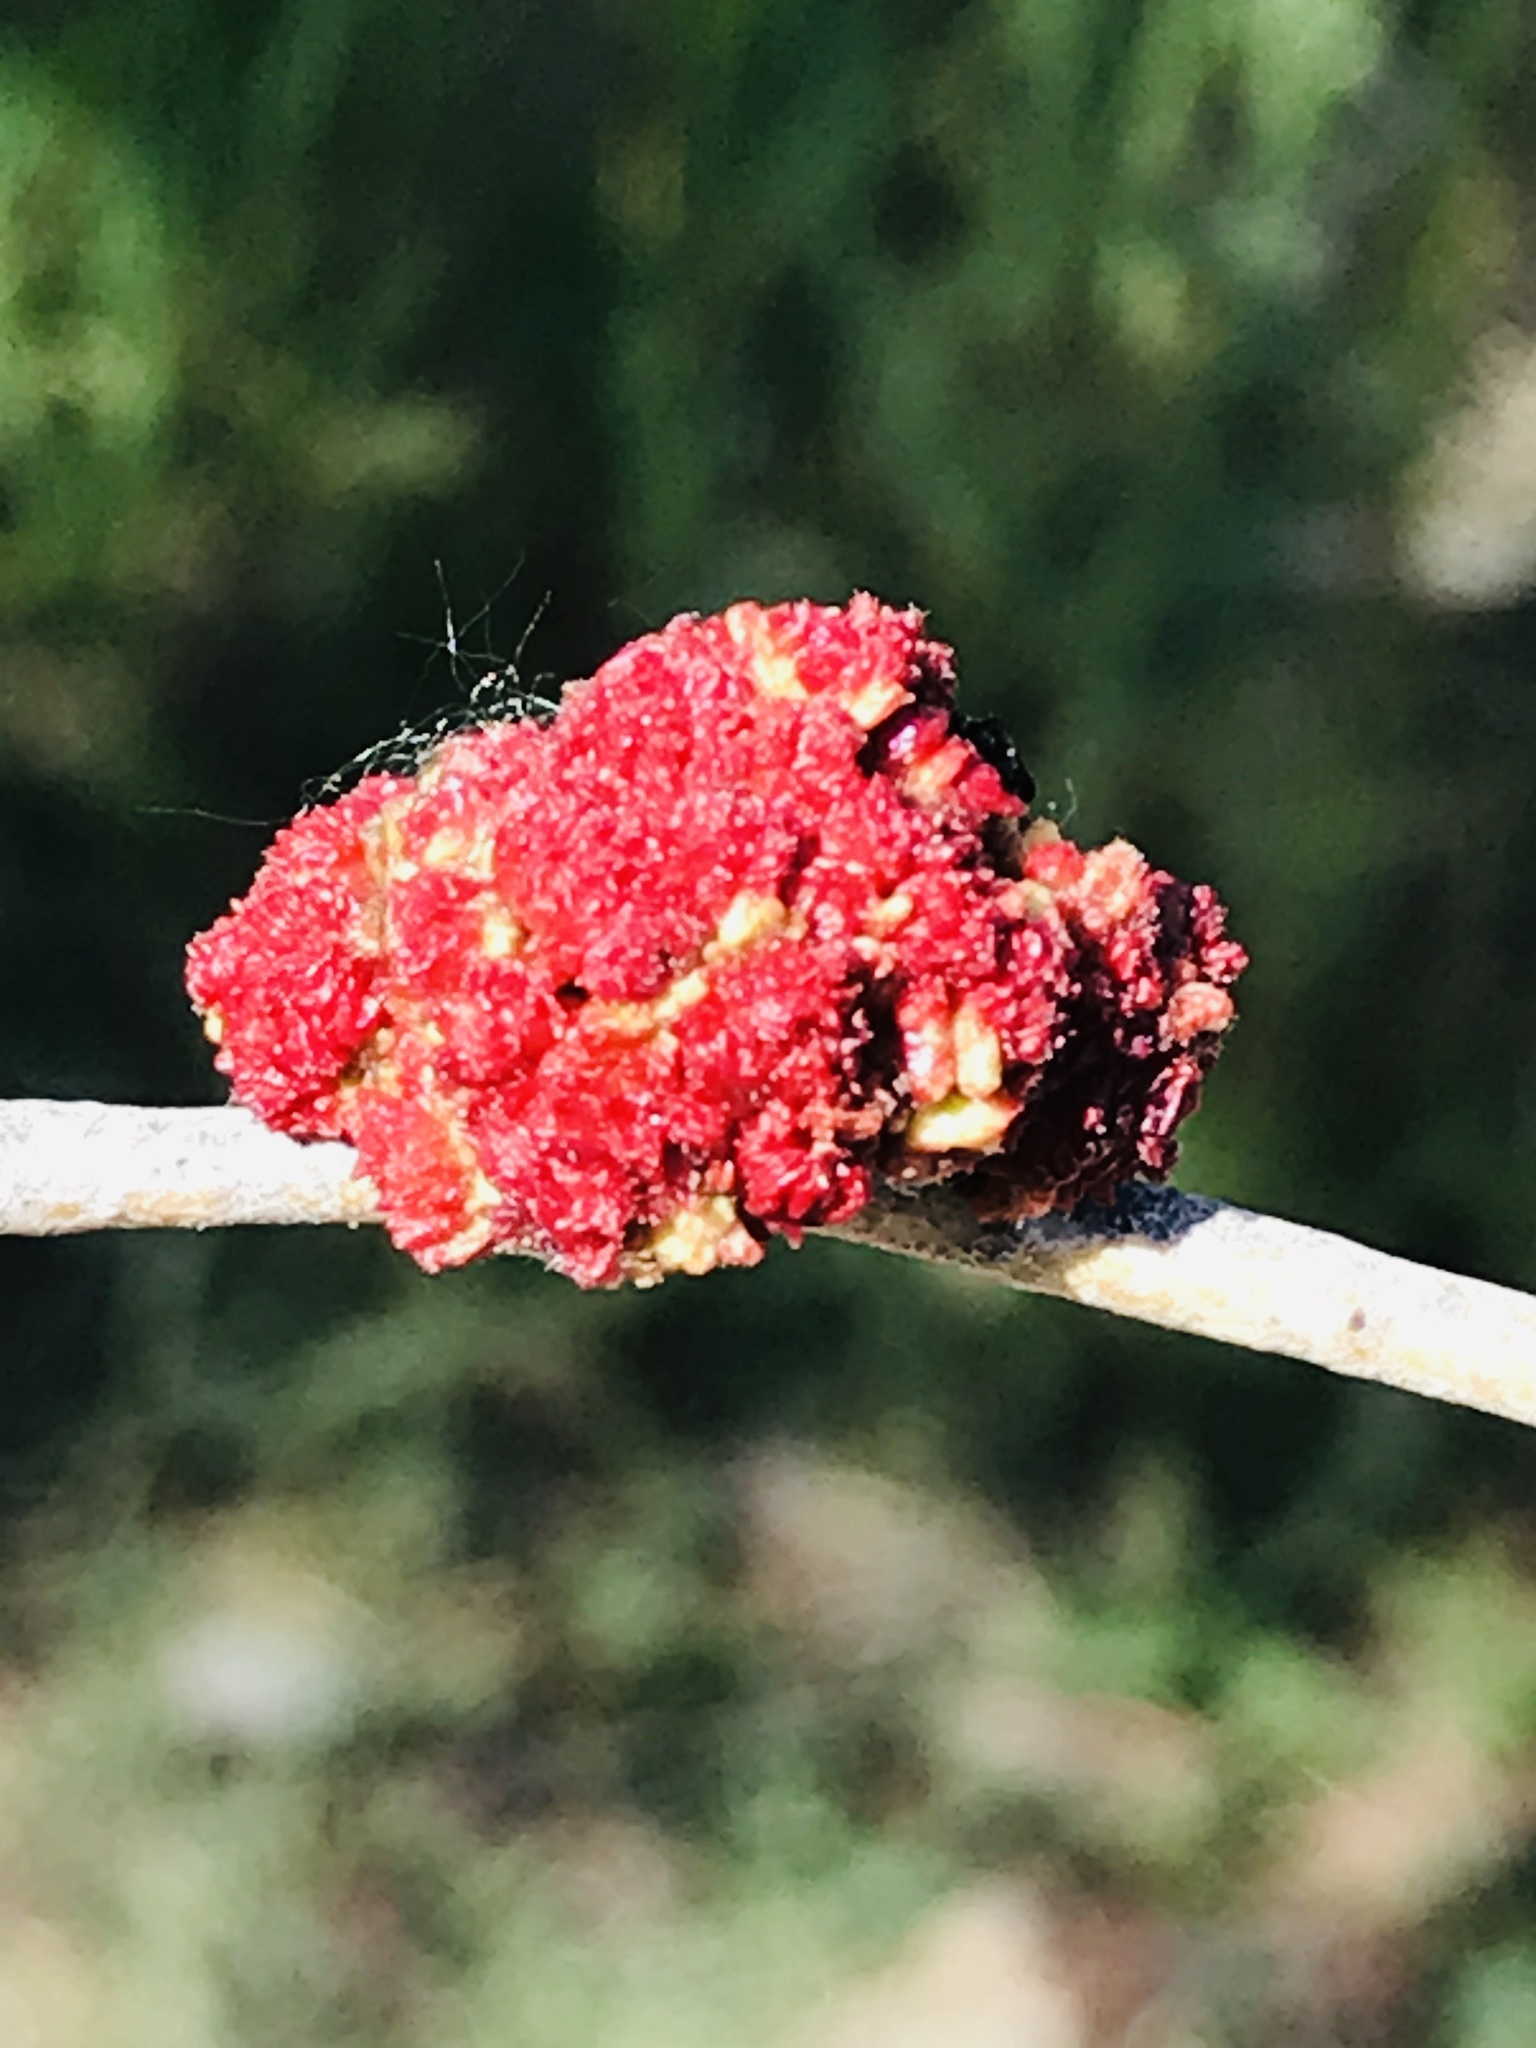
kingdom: Animalia
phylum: Arthropoda
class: Arachnida
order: Trombidiformes
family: Eriophyidae
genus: Aceria
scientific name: Aceria
